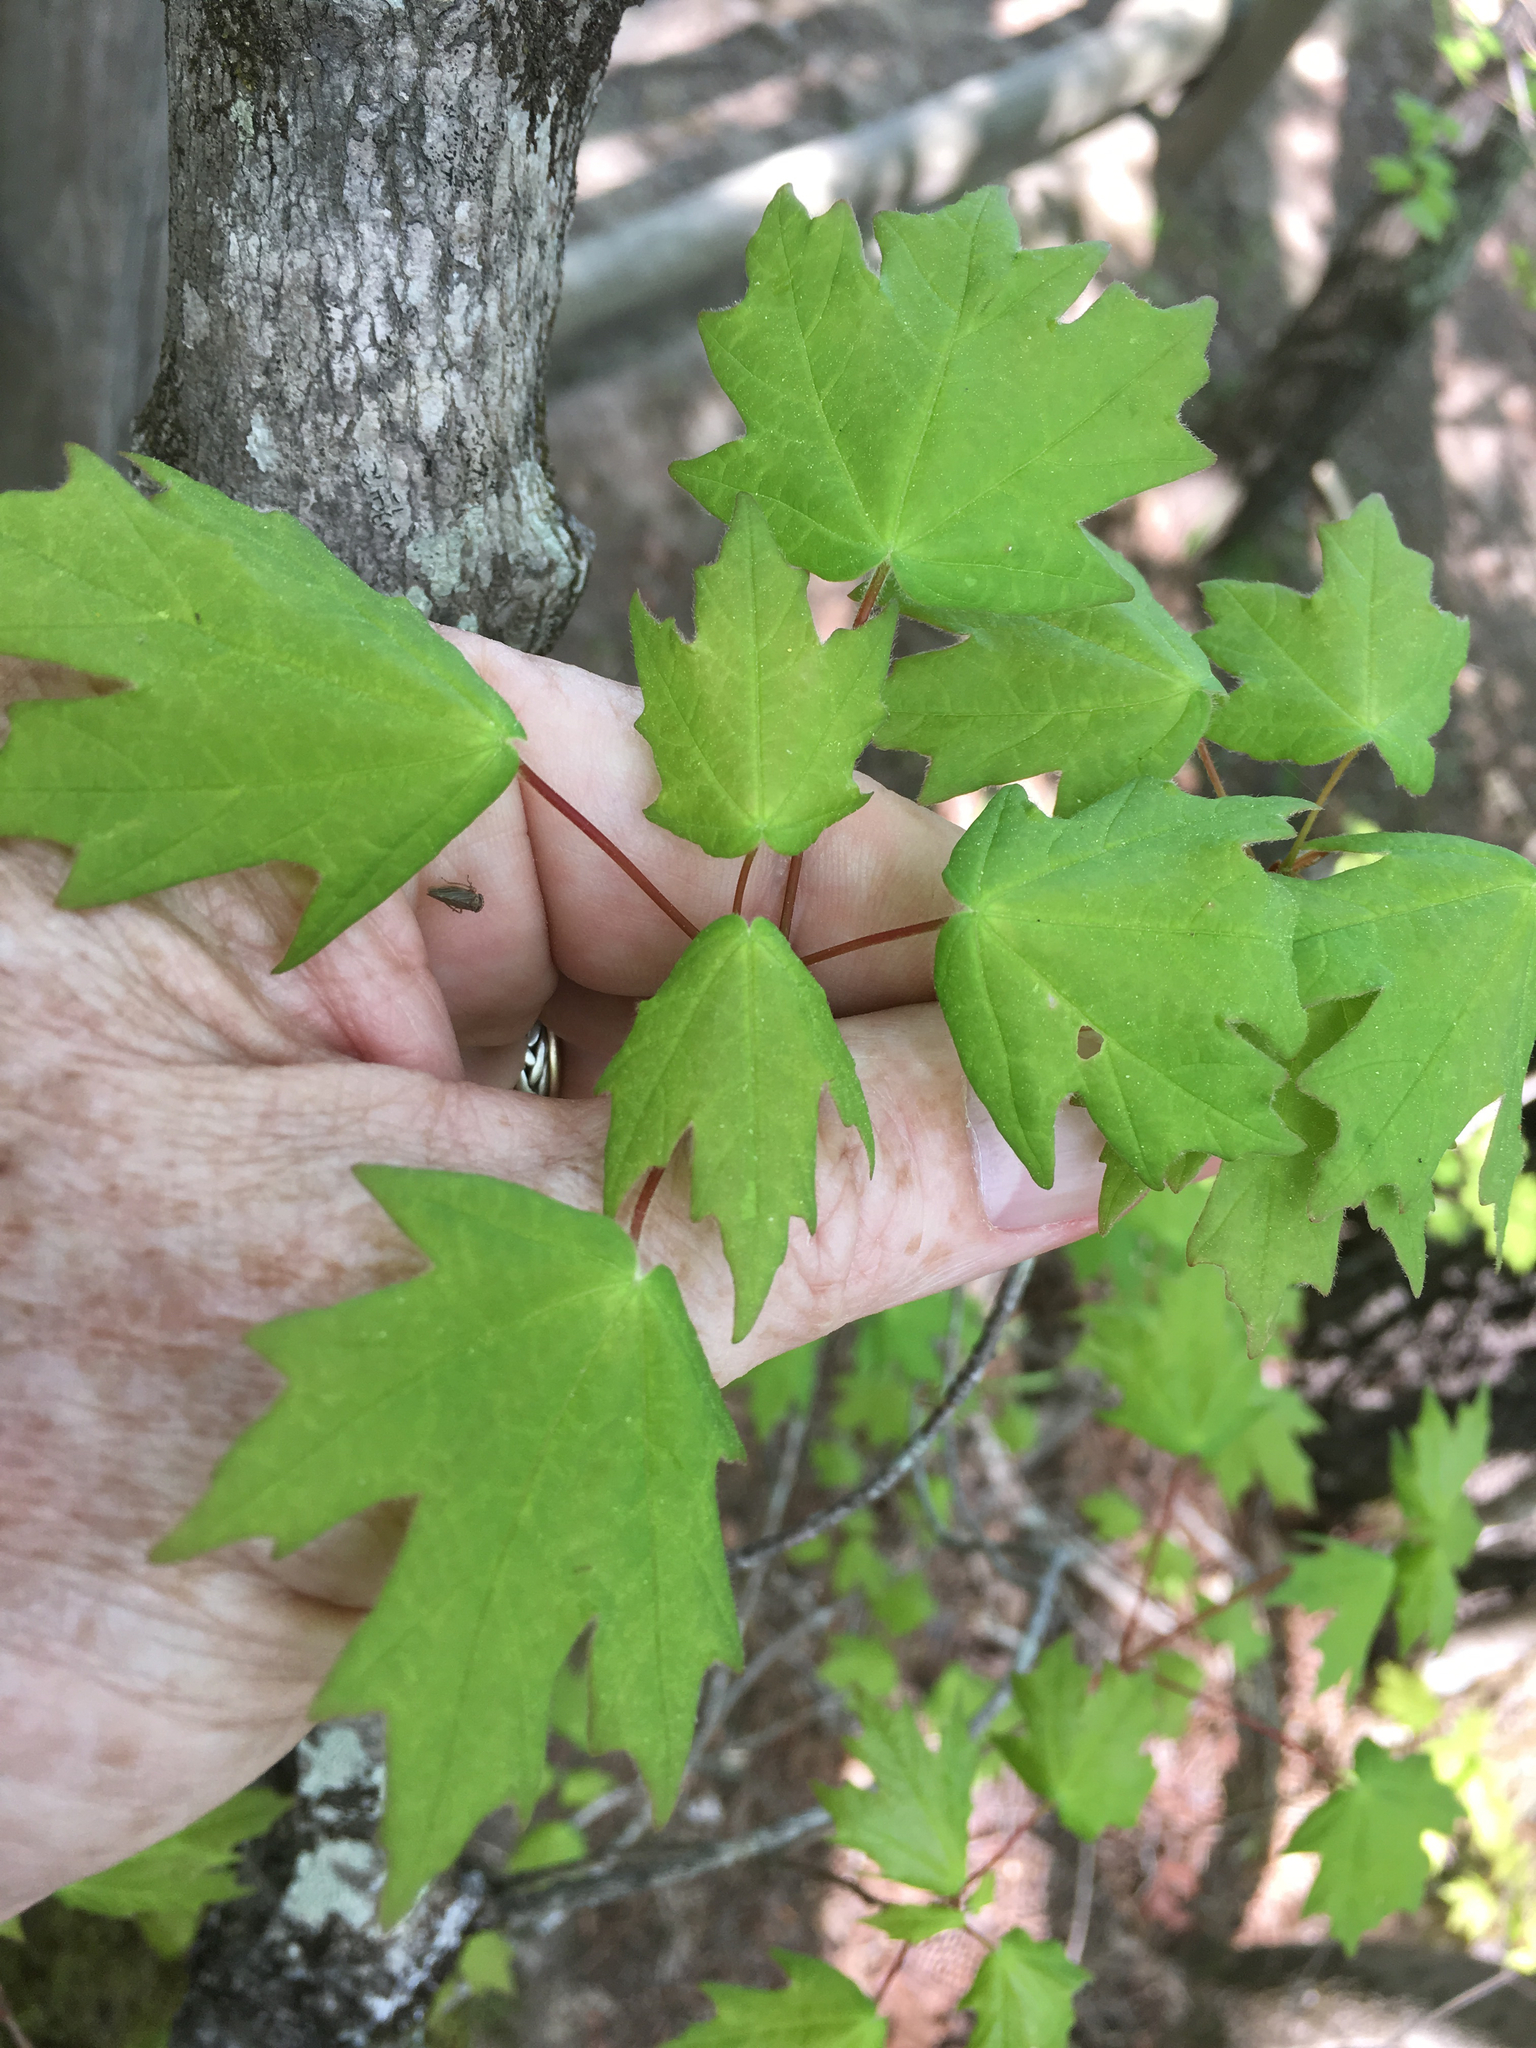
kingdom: Plantae
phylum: Tracheophyta
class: Magnoliopsida
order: Sapindales
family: Sapindaceae
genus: Acer
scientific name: Acer leucoderme
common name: Chalk maple
